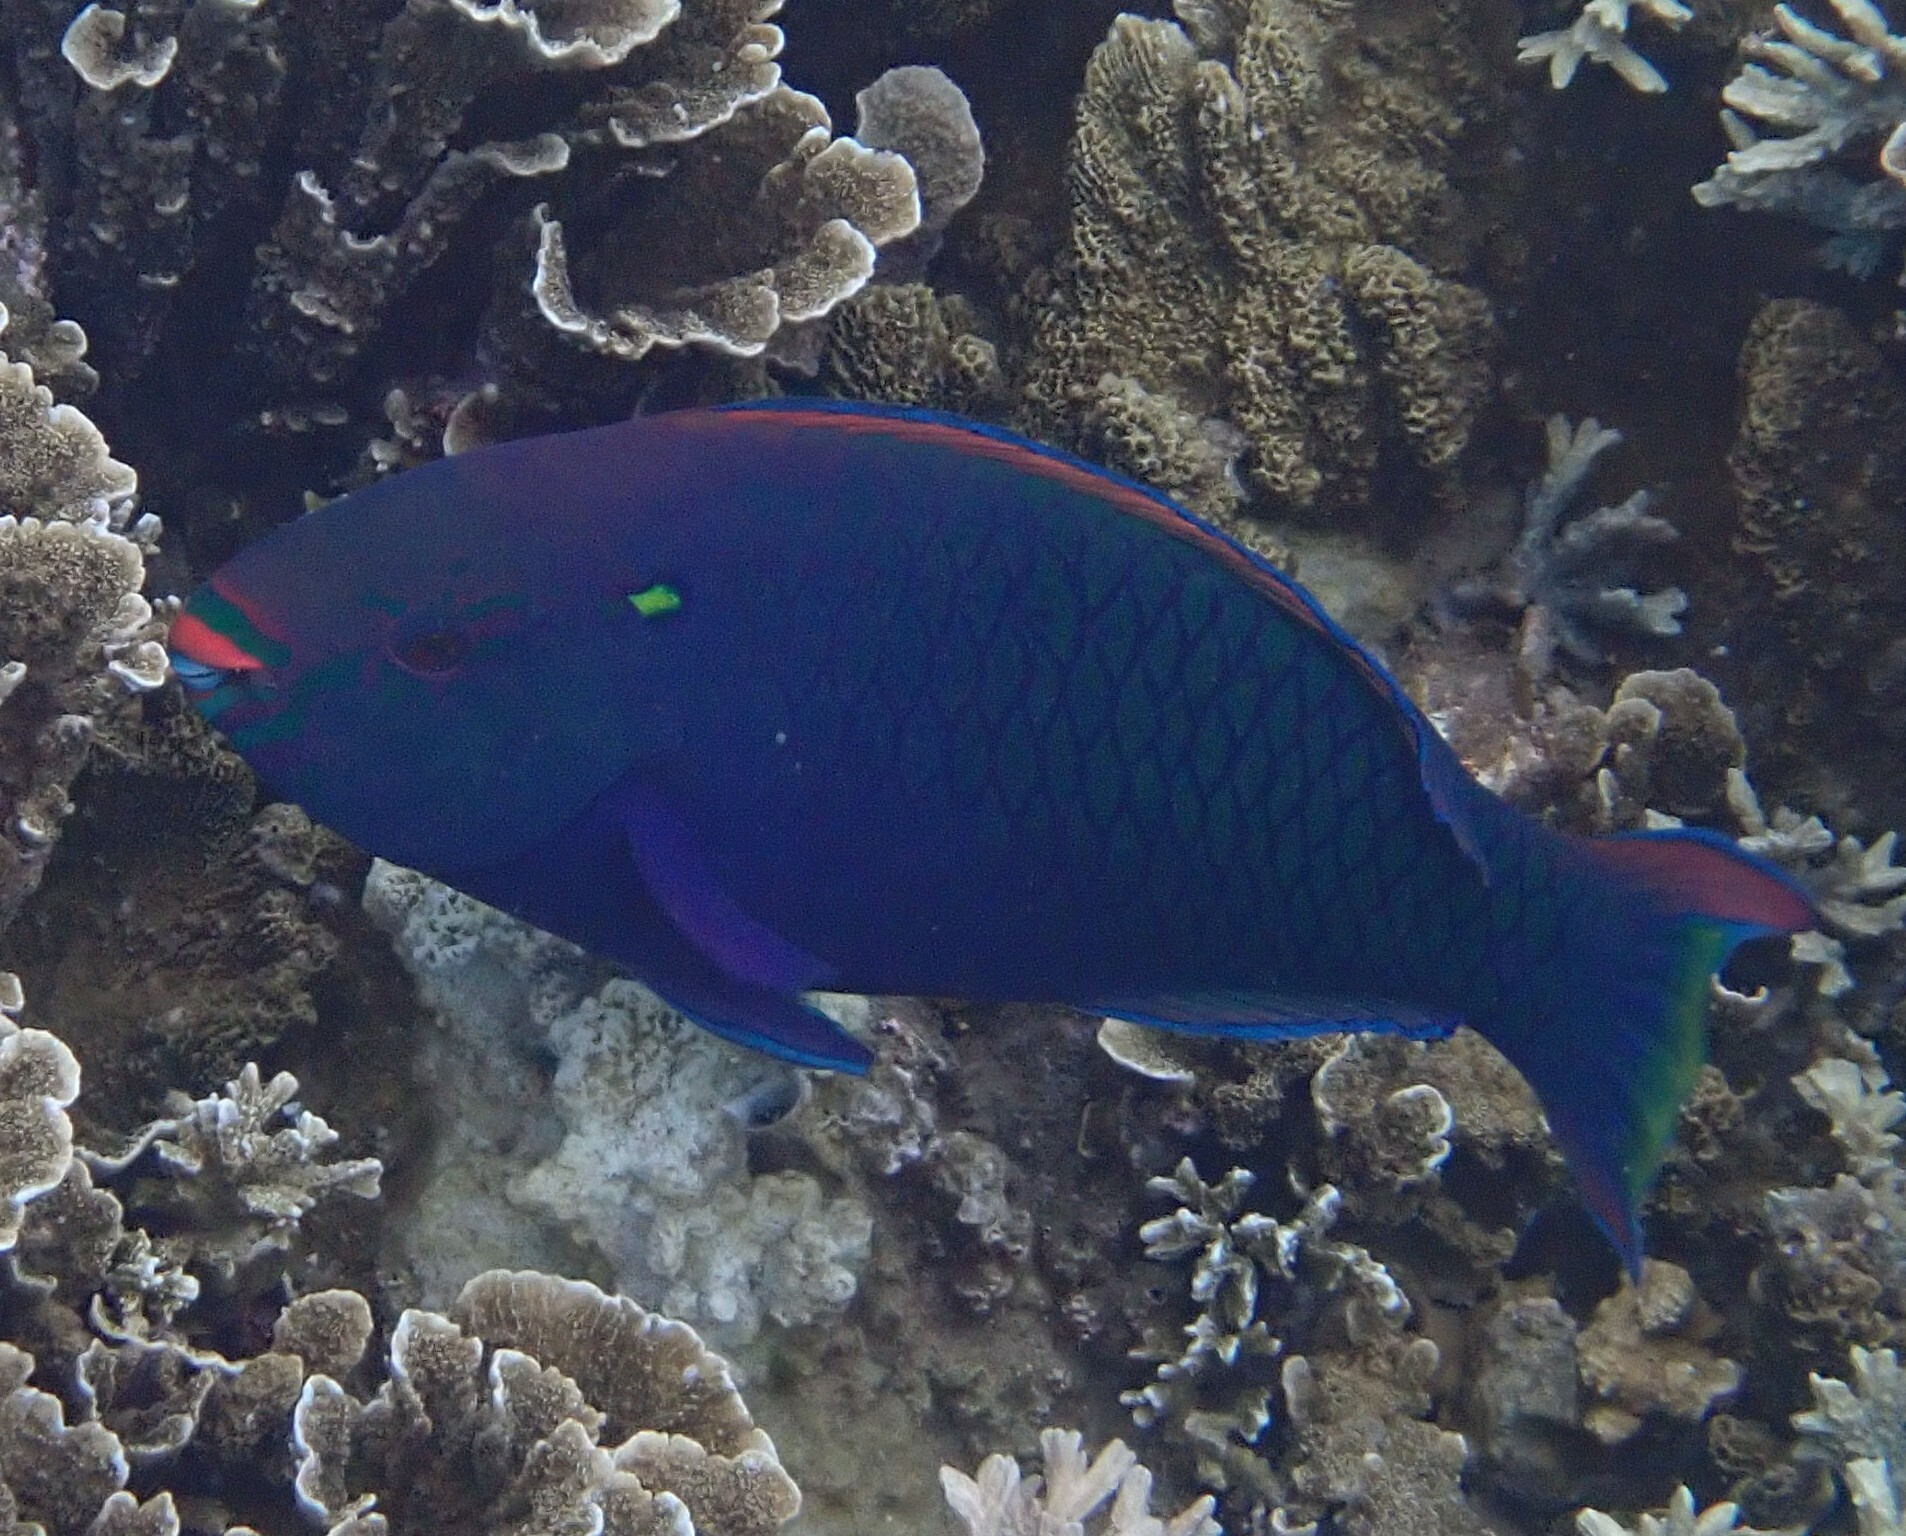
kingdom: Animalia
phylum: Chordata
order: Perciformes
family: Scaridae
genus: Scarus
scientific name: Scarus niger
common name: Dusky parrotfish
